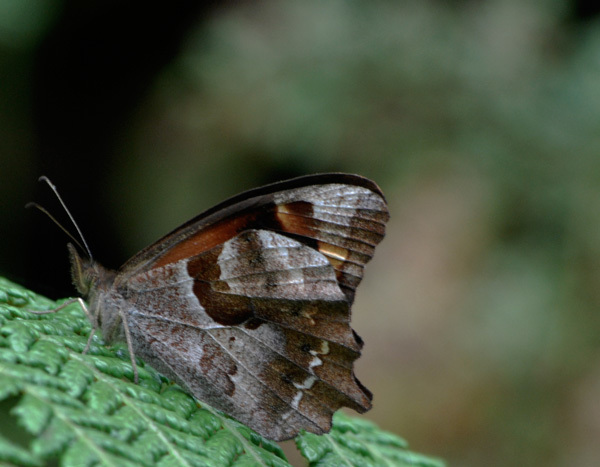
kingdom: Animalia
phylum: Arthropoda
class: Insecta
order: Lepidoptera
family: Nymphalidae
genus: Lasiophila
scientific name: Lasiophila zapatoza
